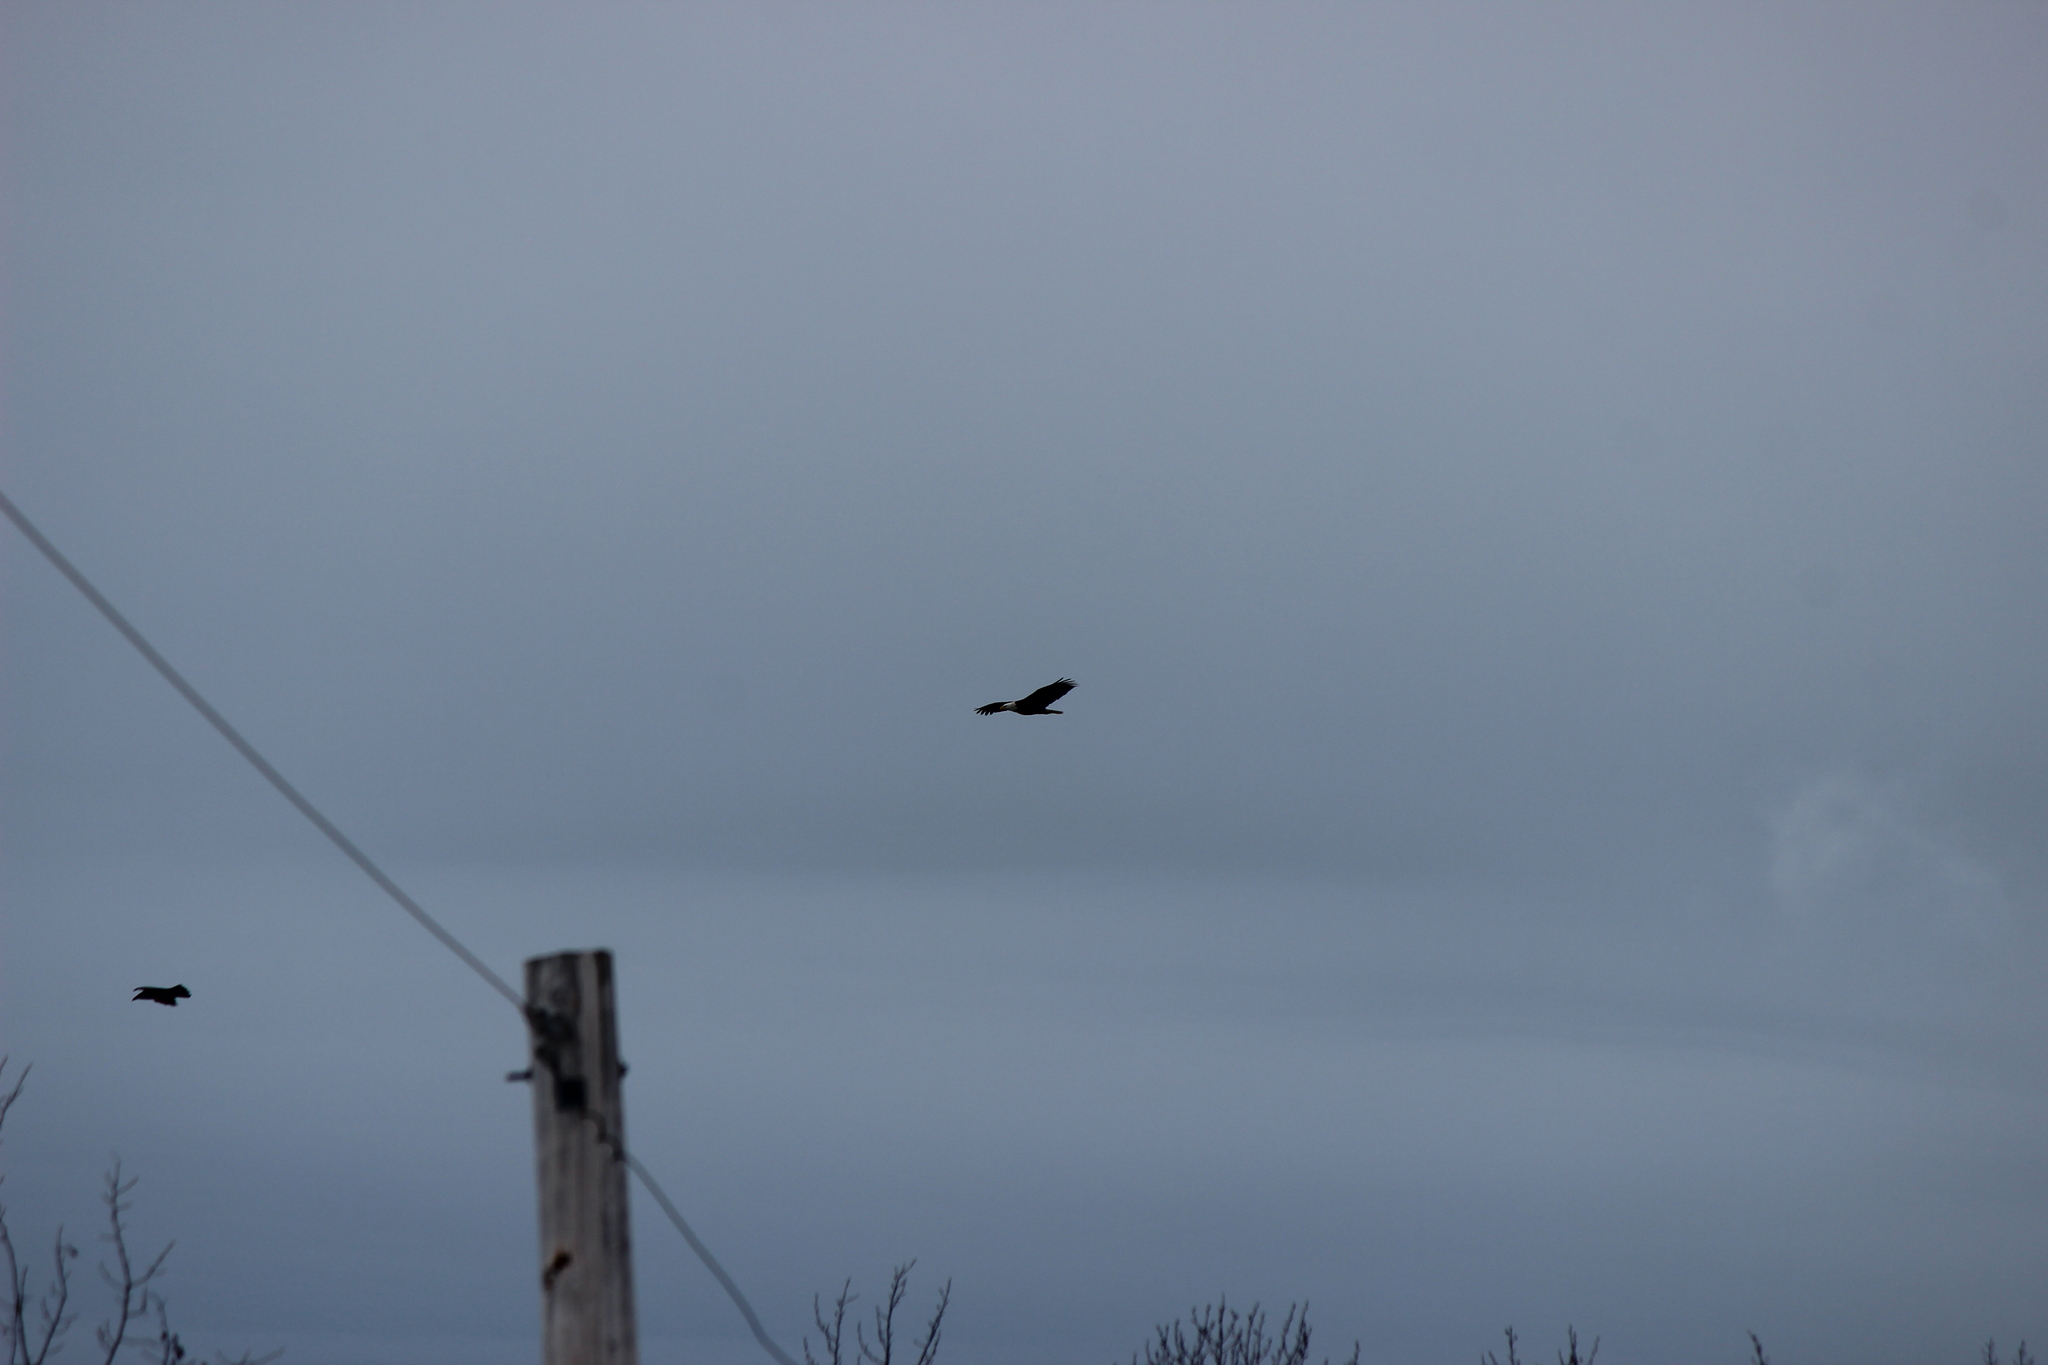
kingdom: Animalia
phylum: Chordata
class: Aves
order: Accipitriformes
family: Accipitridae
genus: Haliaeetus
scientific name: Haliaeetus leucocephalus
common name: Bald eagle
